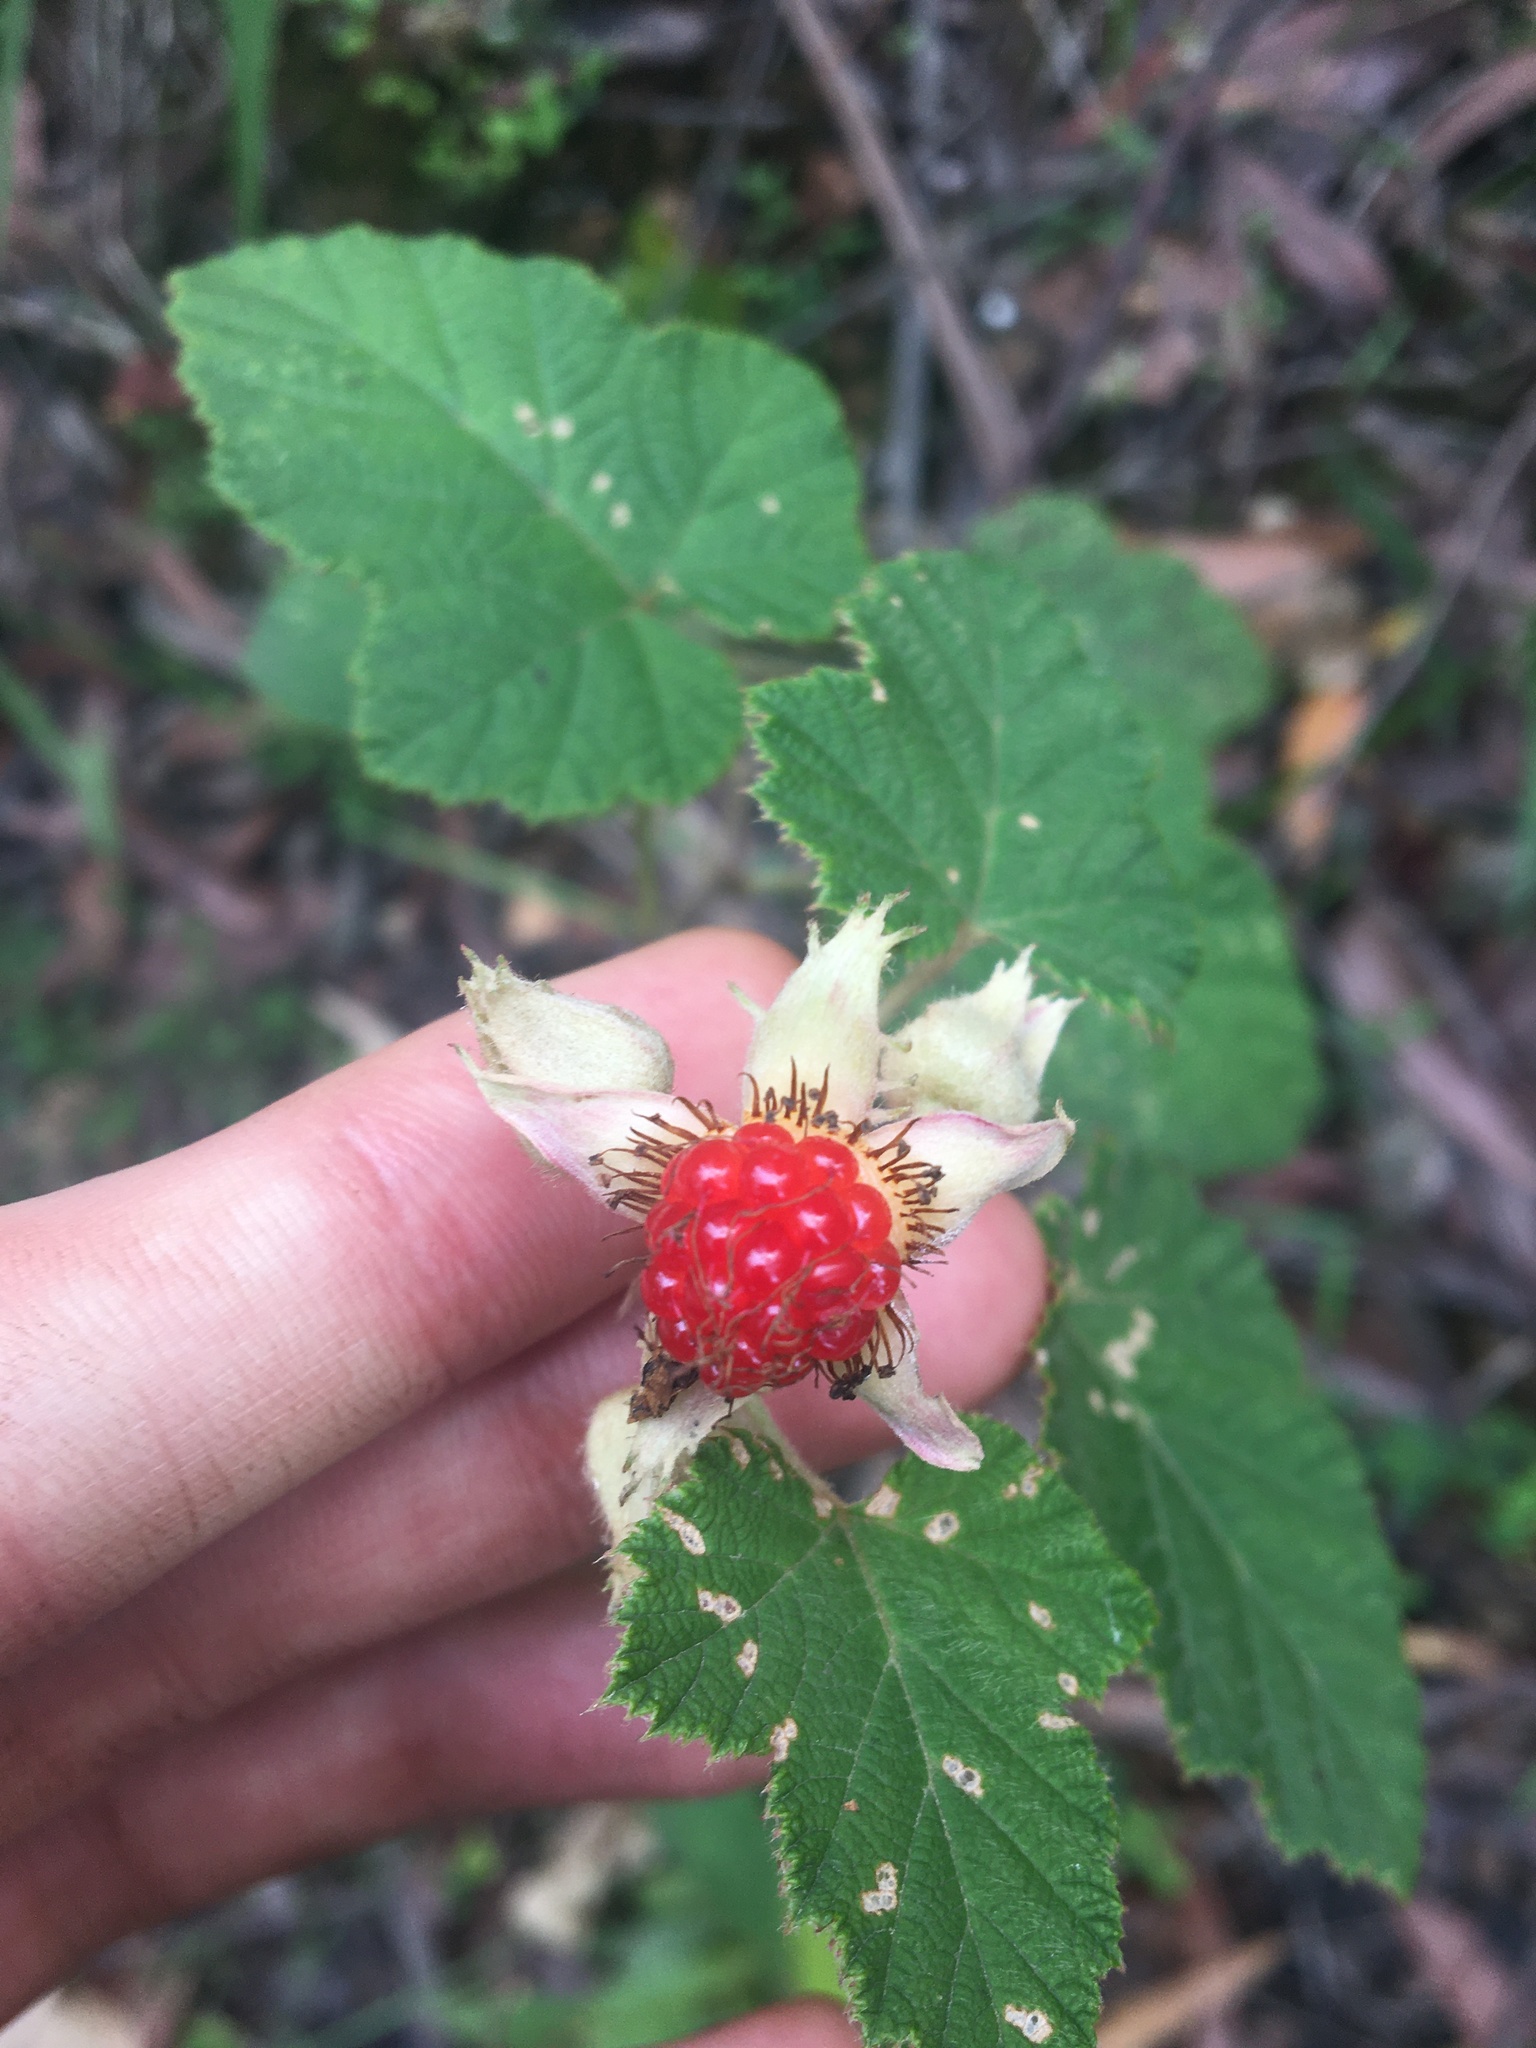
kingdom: Plantae
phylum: Tracheophyta
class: Magnoliopsida
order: Rosales
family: Rosaceae
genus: Rubus
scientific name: Rubus moluccanus
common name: Wild raspberry
